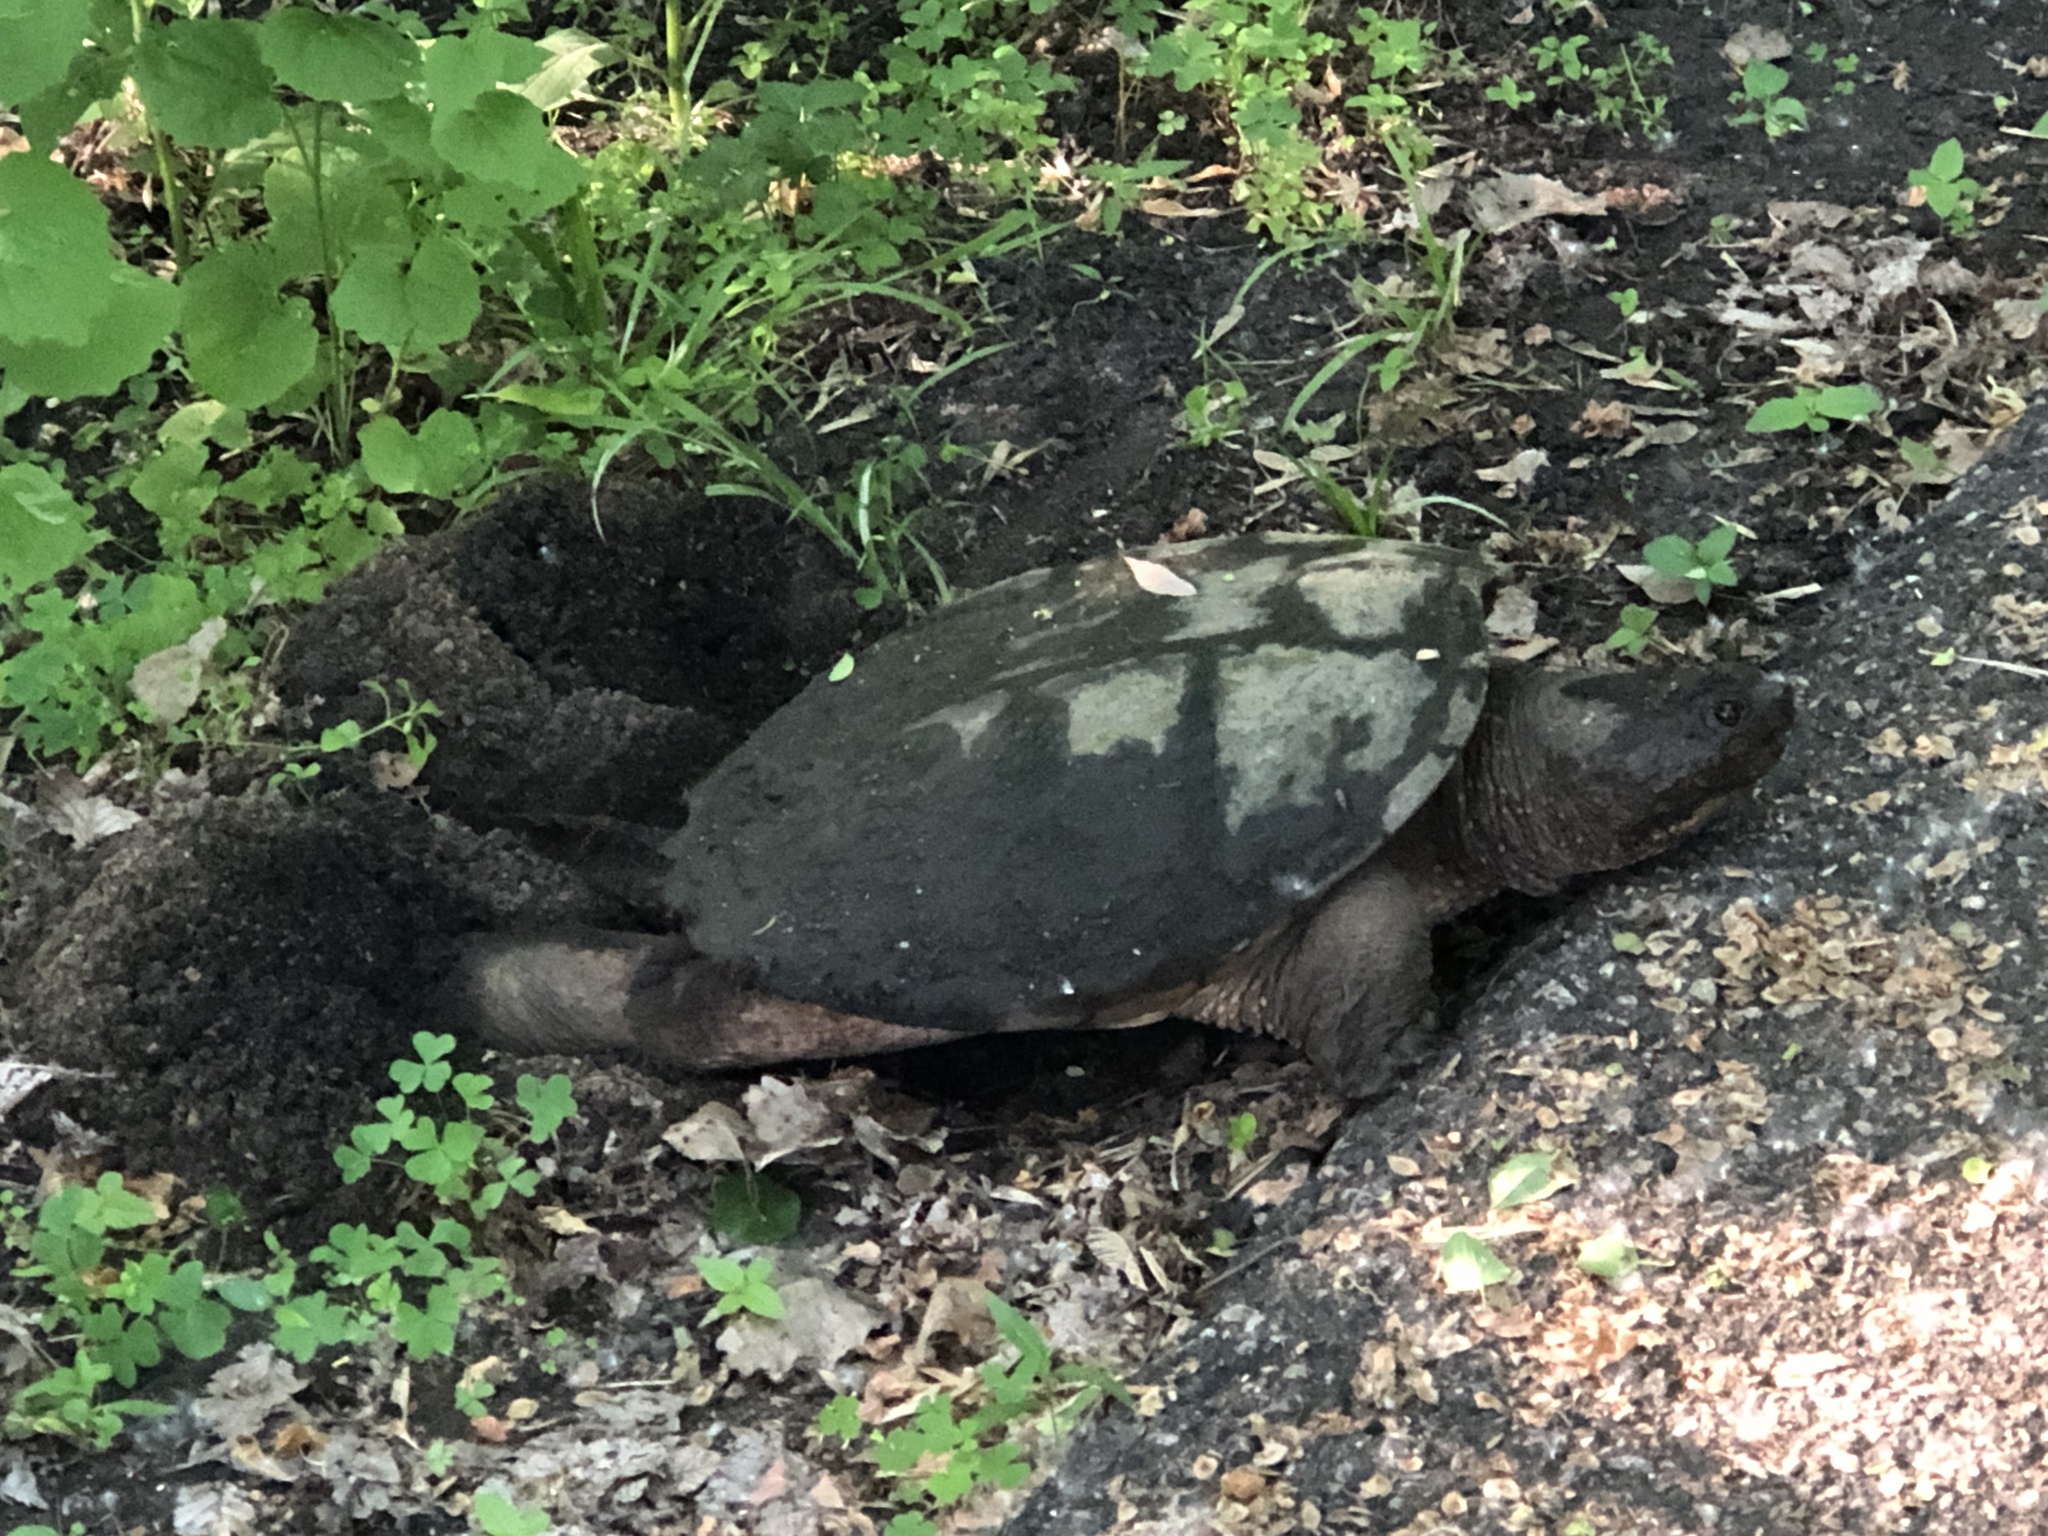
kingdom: Animalia
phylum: Chordata
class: Testudines
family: Chelydridae
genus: Chelydra
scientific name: Chelydra serpentina
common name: Common snapping turtle
